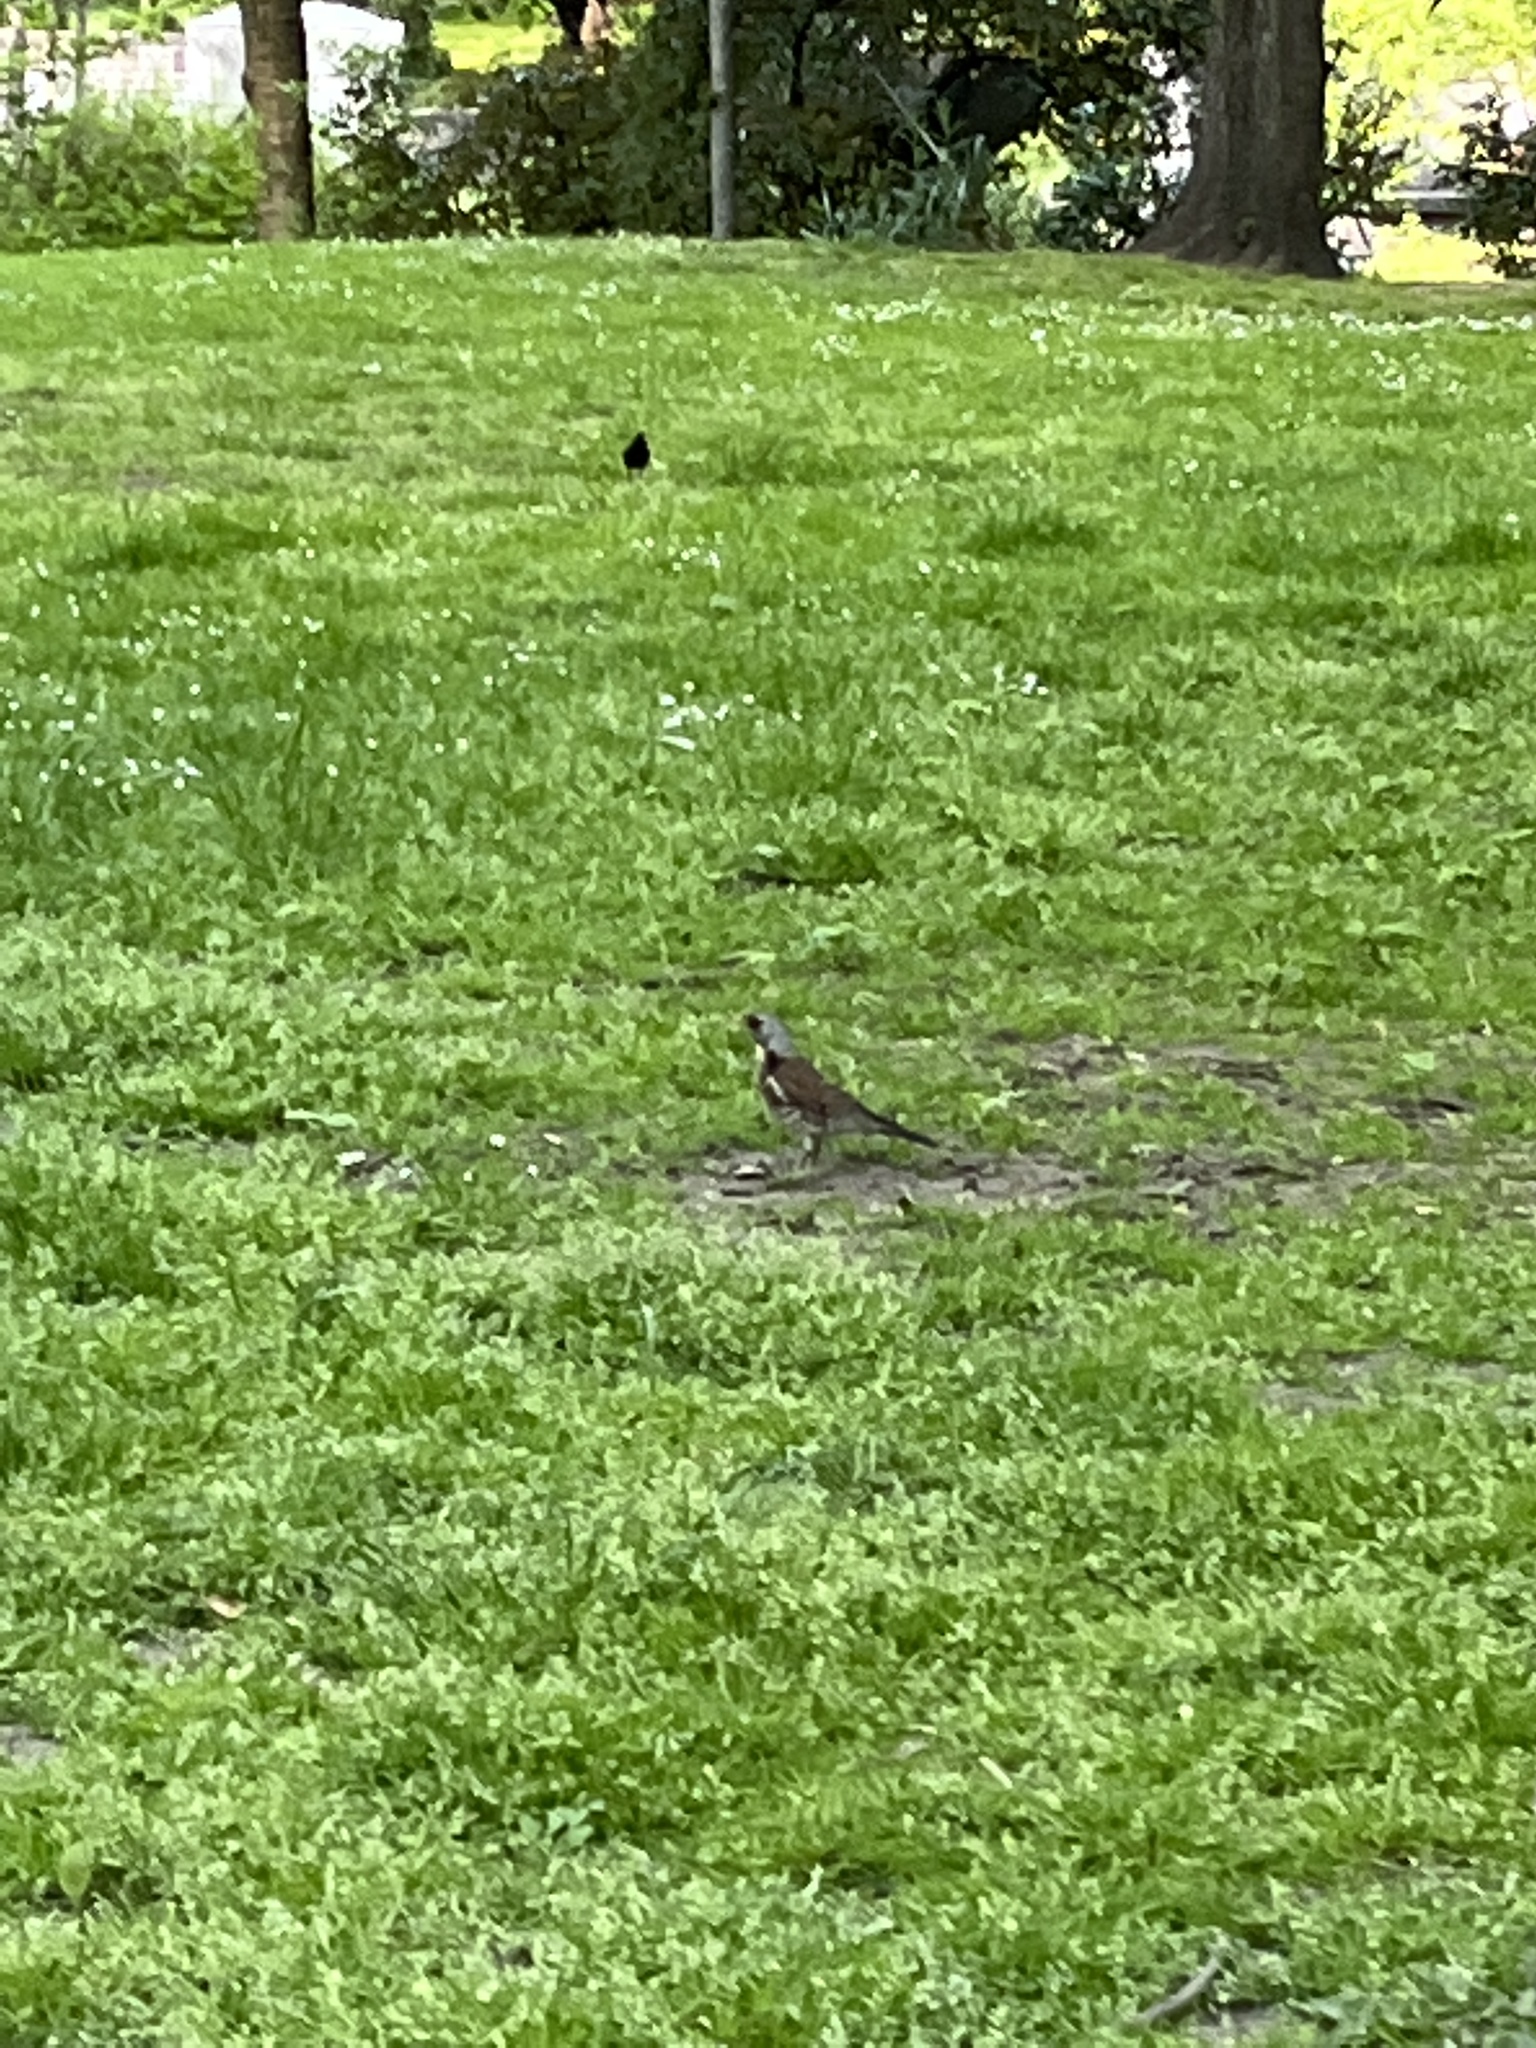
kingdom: Animalia
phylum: Chordata
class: Aves
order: Passeriformes
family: Turdidae
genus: Turdus
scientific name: Turdus pilaris
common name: Fieldfare
